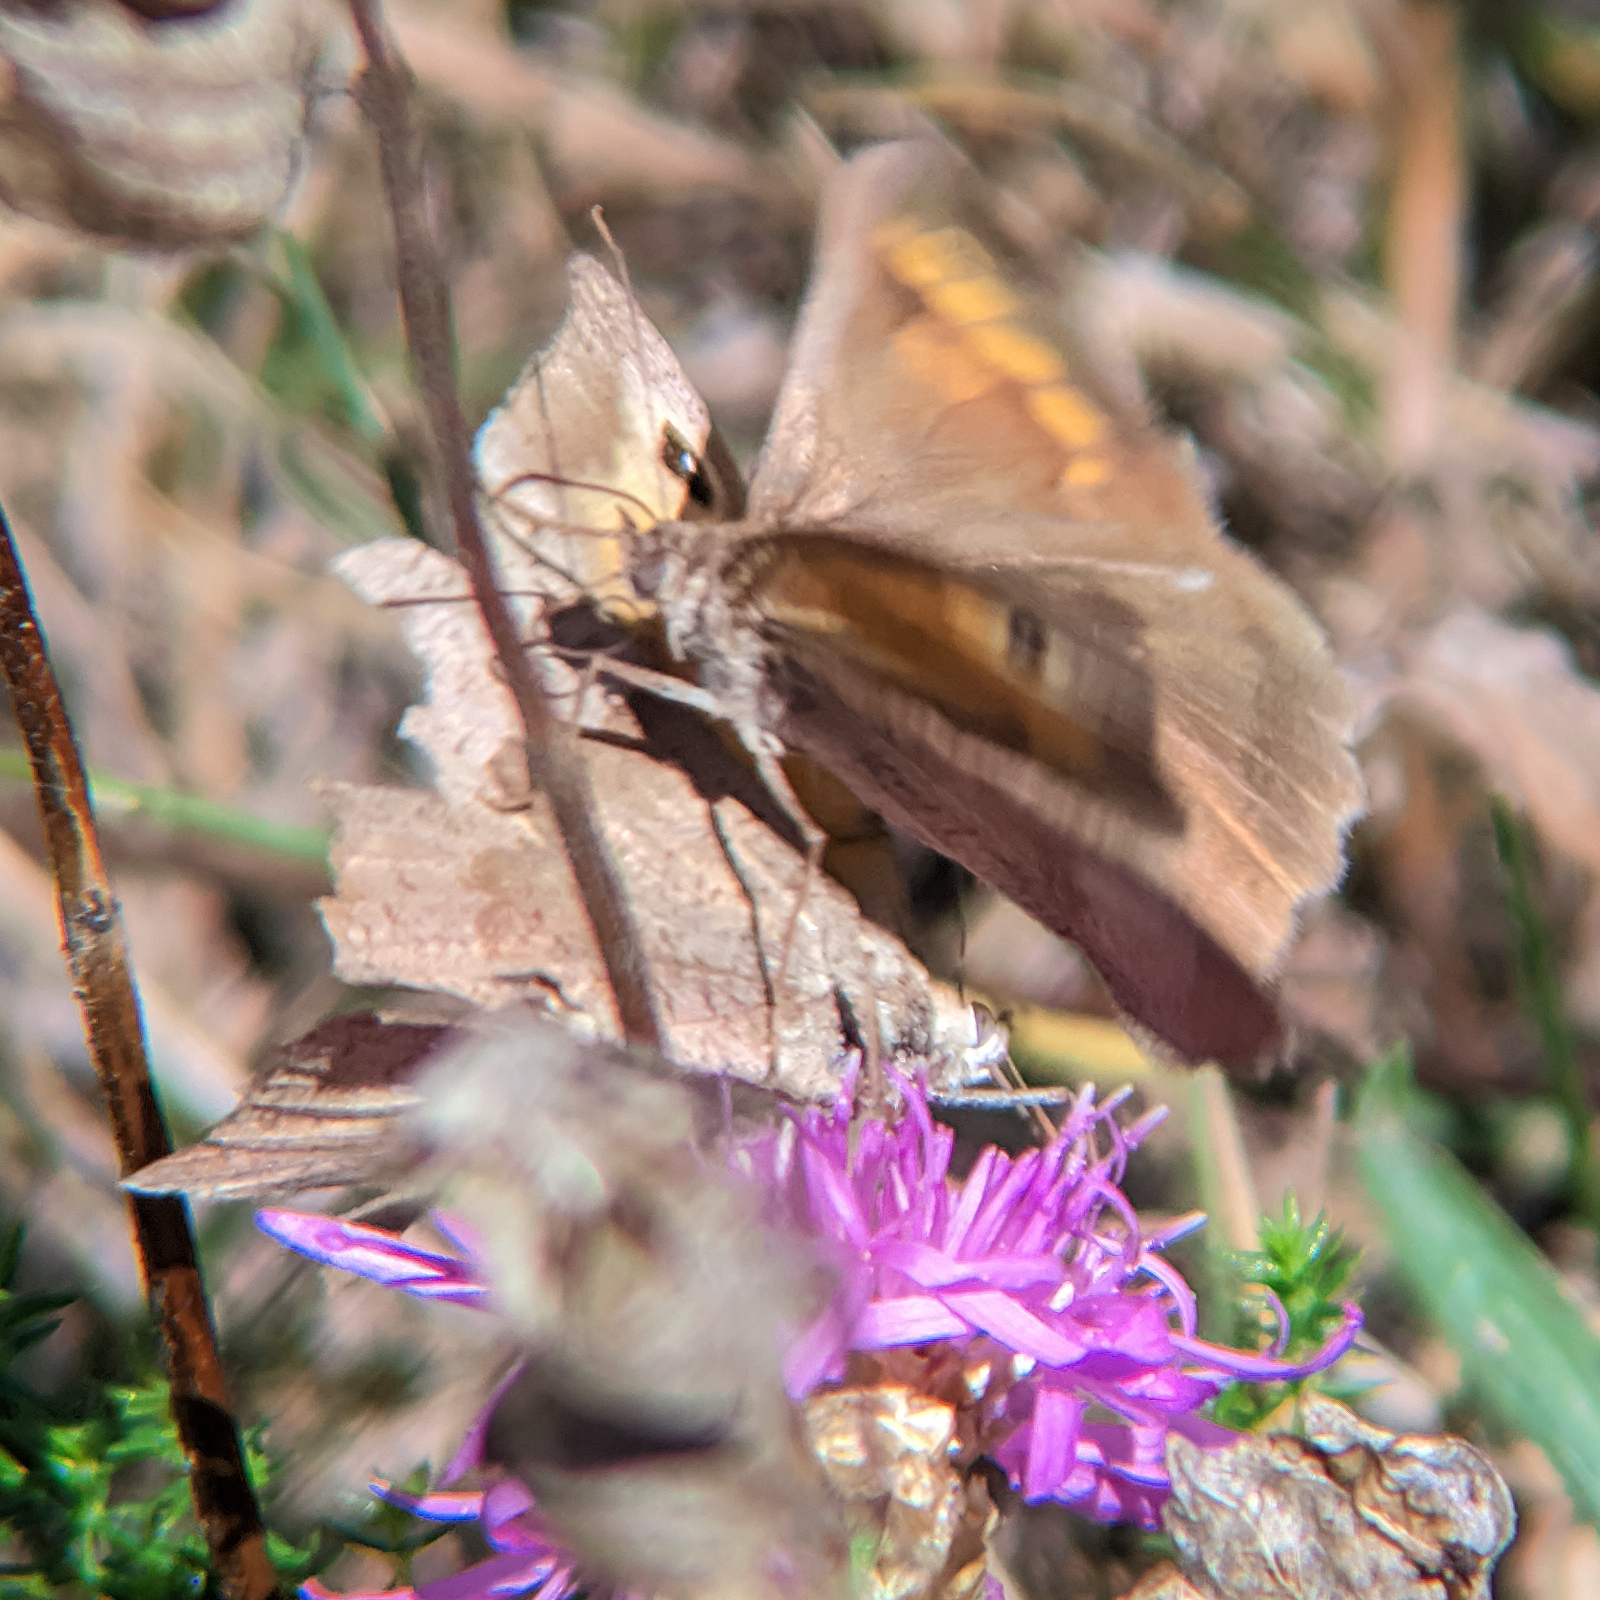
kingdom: Animalia
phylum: Arthropoda
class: Insecta
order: Lepidoptera
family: Nymphalidae
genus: Maniola
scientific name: Maniola jurtina
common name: Meadow brown
